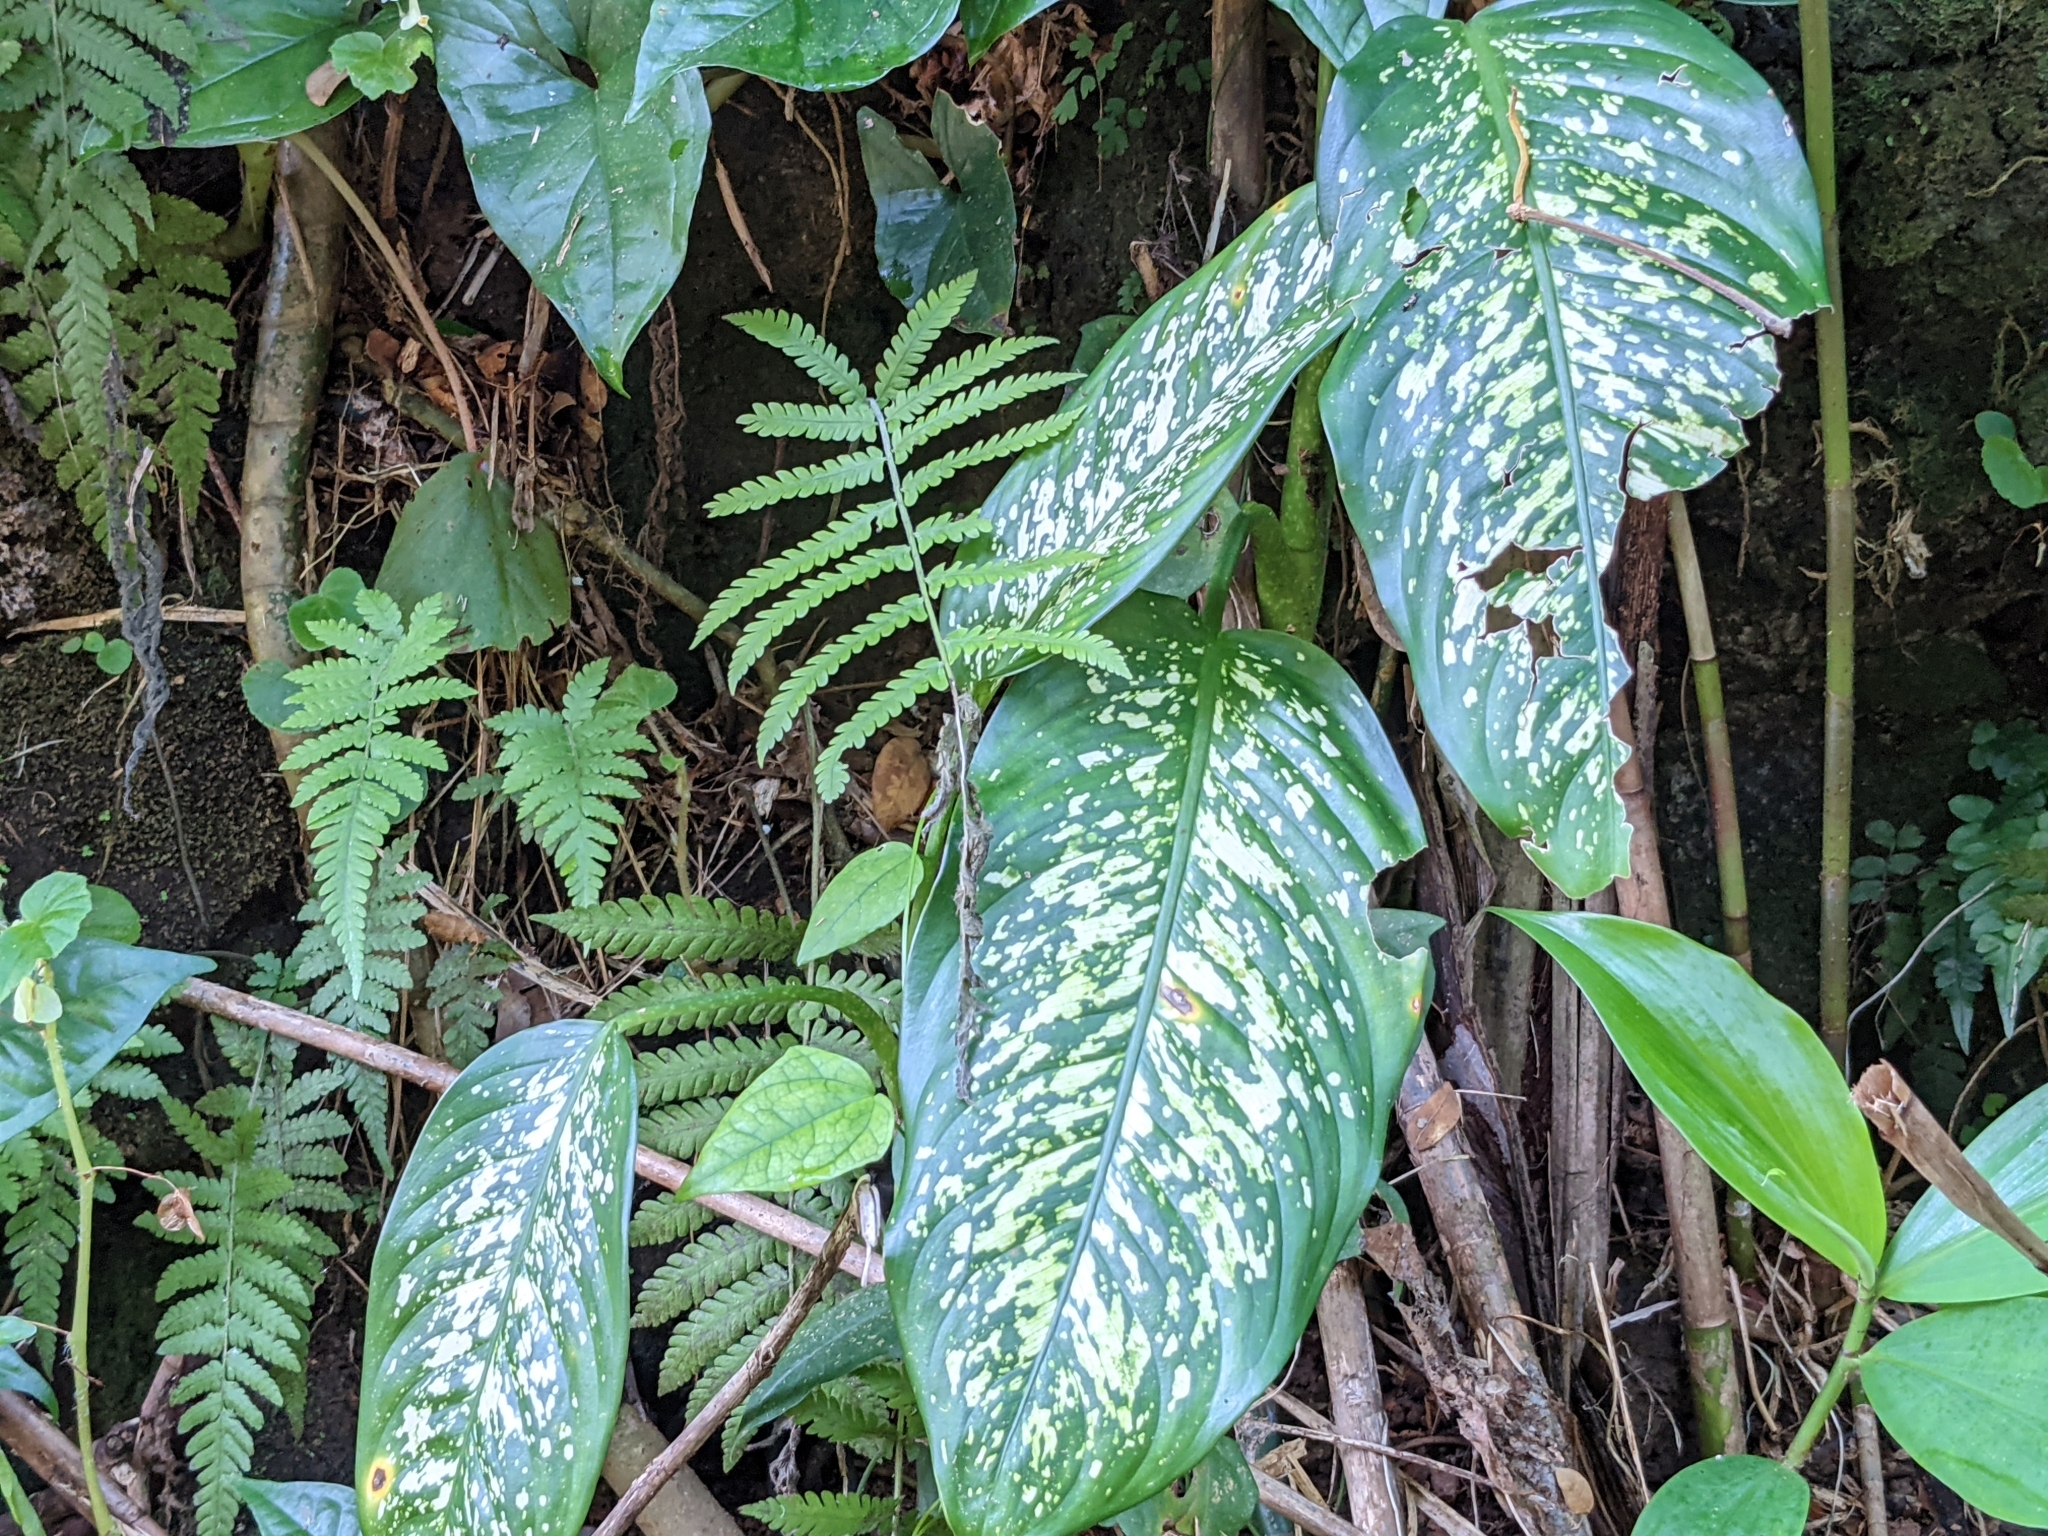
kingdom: Plantae
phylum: Tracheophyta
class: Liliopsida
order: Alismatales
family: Araceae
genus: Dieffenbachia
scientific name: Dieffenbachia seguine
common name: Dumbcane
